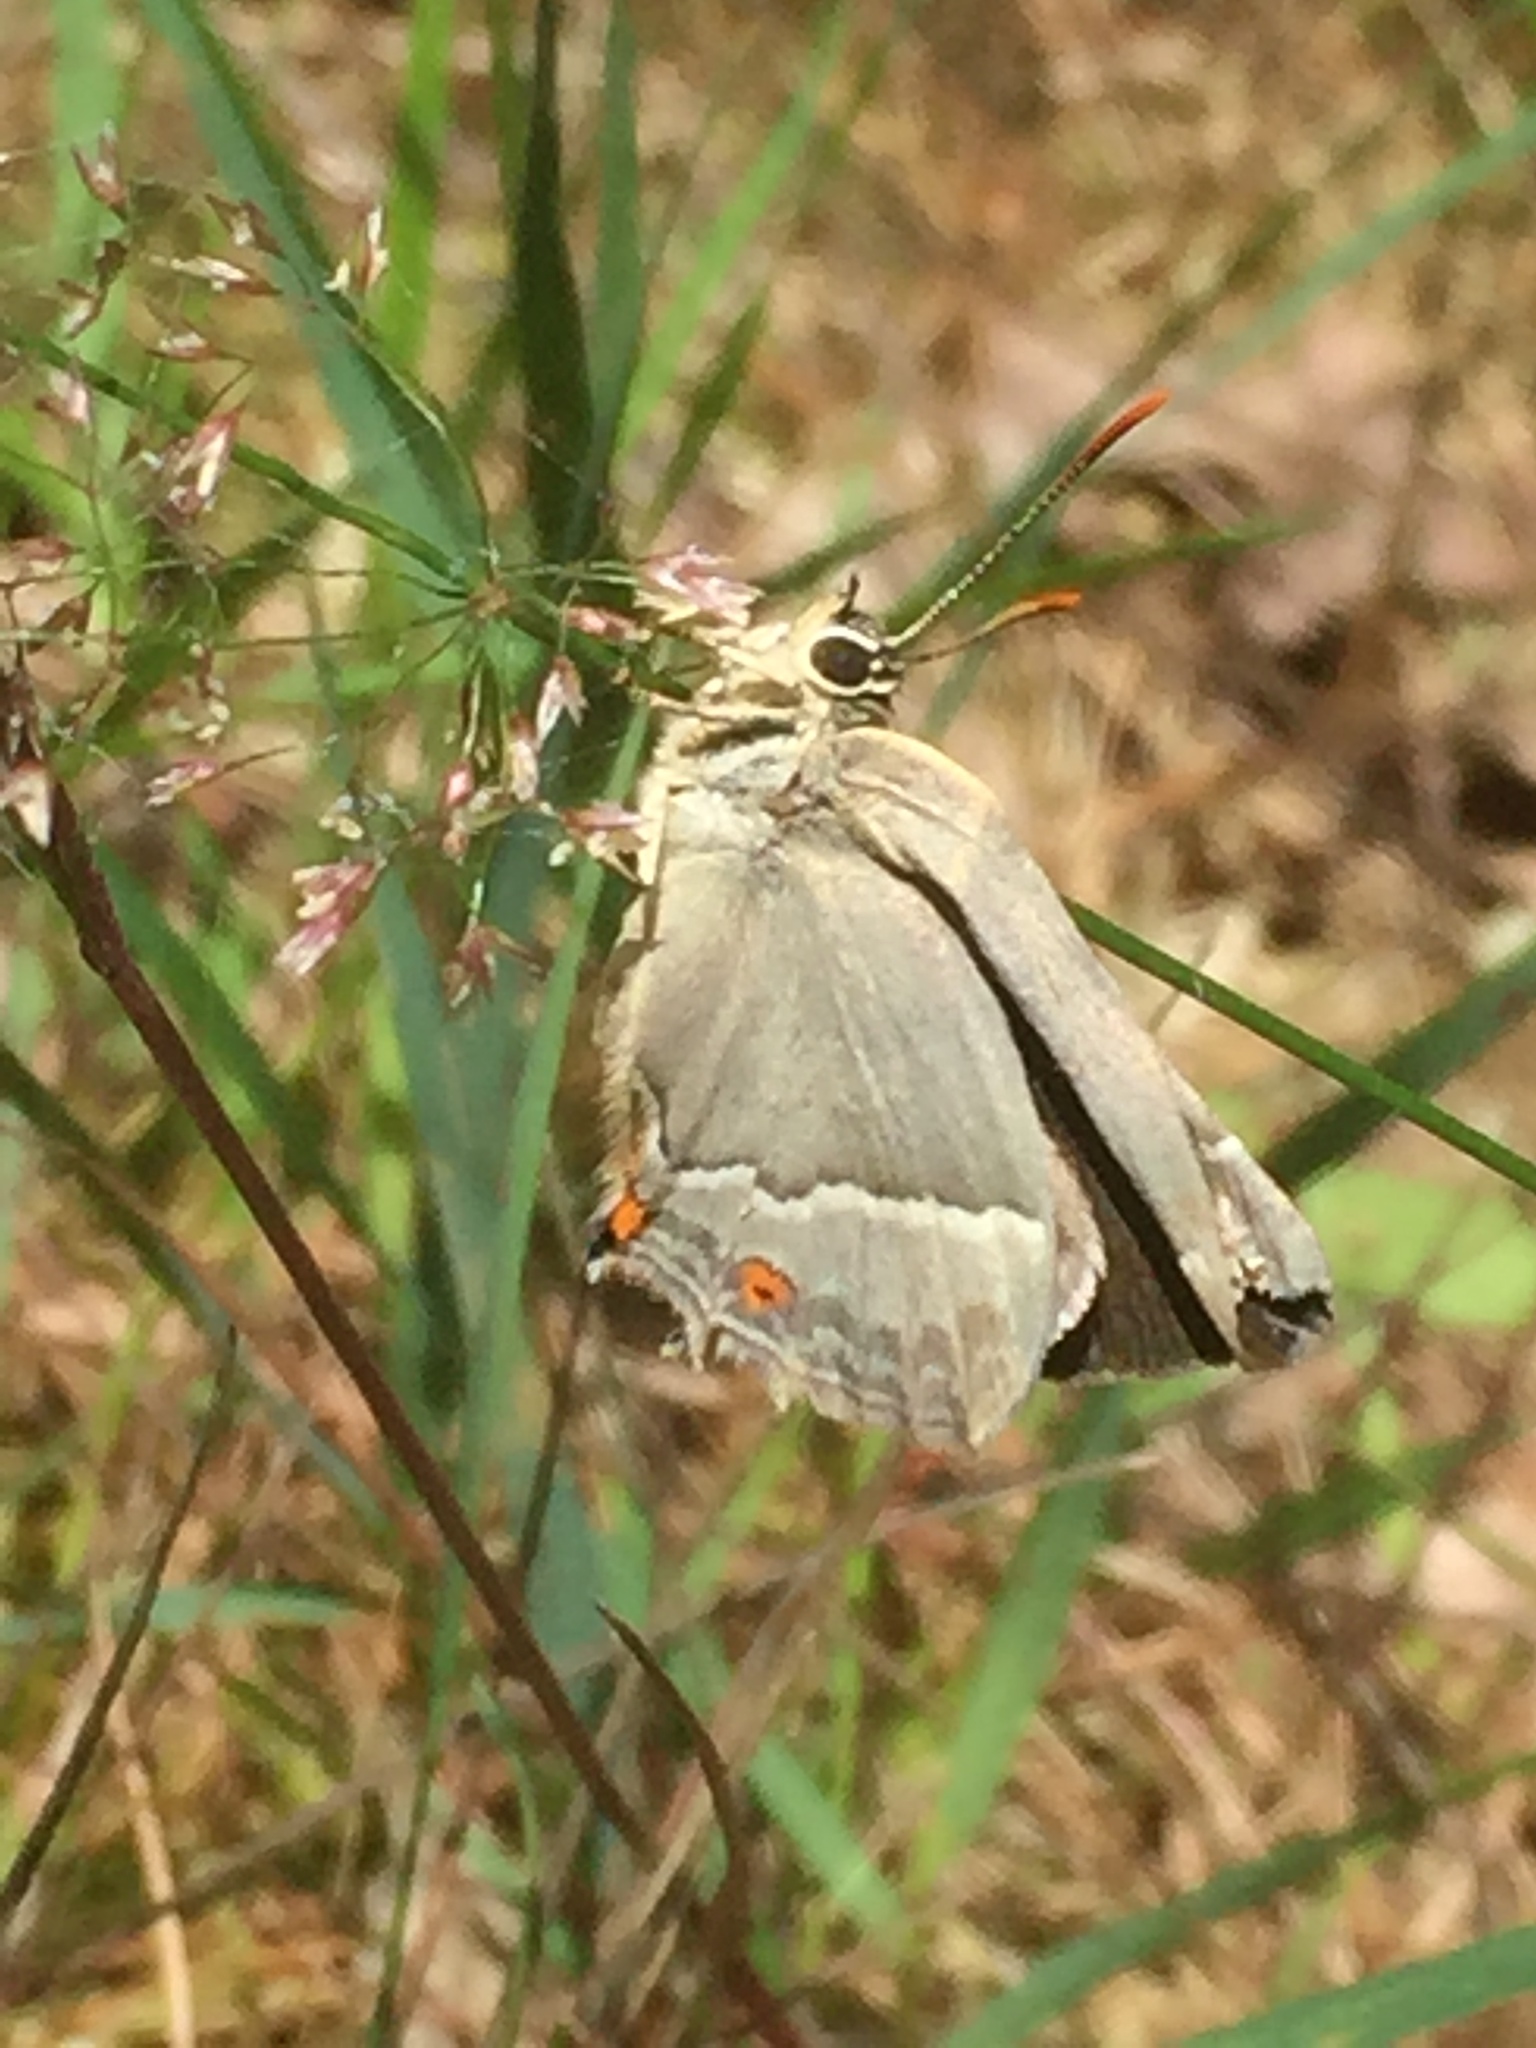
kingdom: Animalia
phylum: Arthropoda
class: Insecta
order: Lepidoptera
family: Lycaenidae
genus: Quercusia
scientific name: Quercusia quercus
